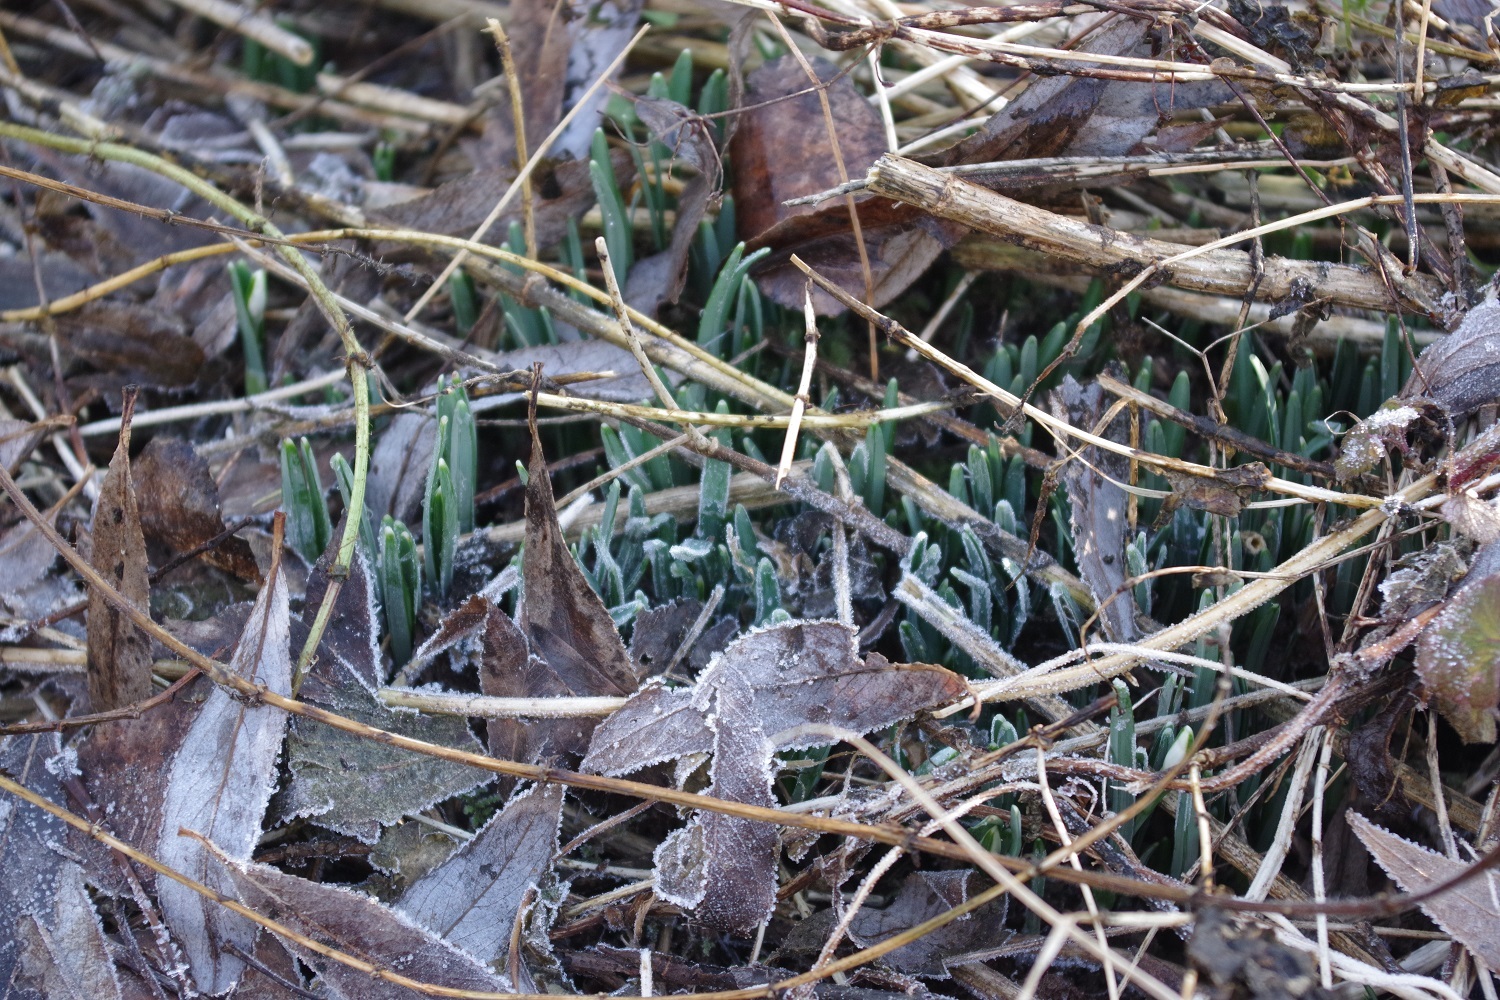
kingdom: Plantae
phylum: Tracheophyta
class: Liliopsida
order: Asparagales
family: Amaryllidaceae
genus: Galanthus
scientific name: Galanthus nivalis
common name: Snowdrop
